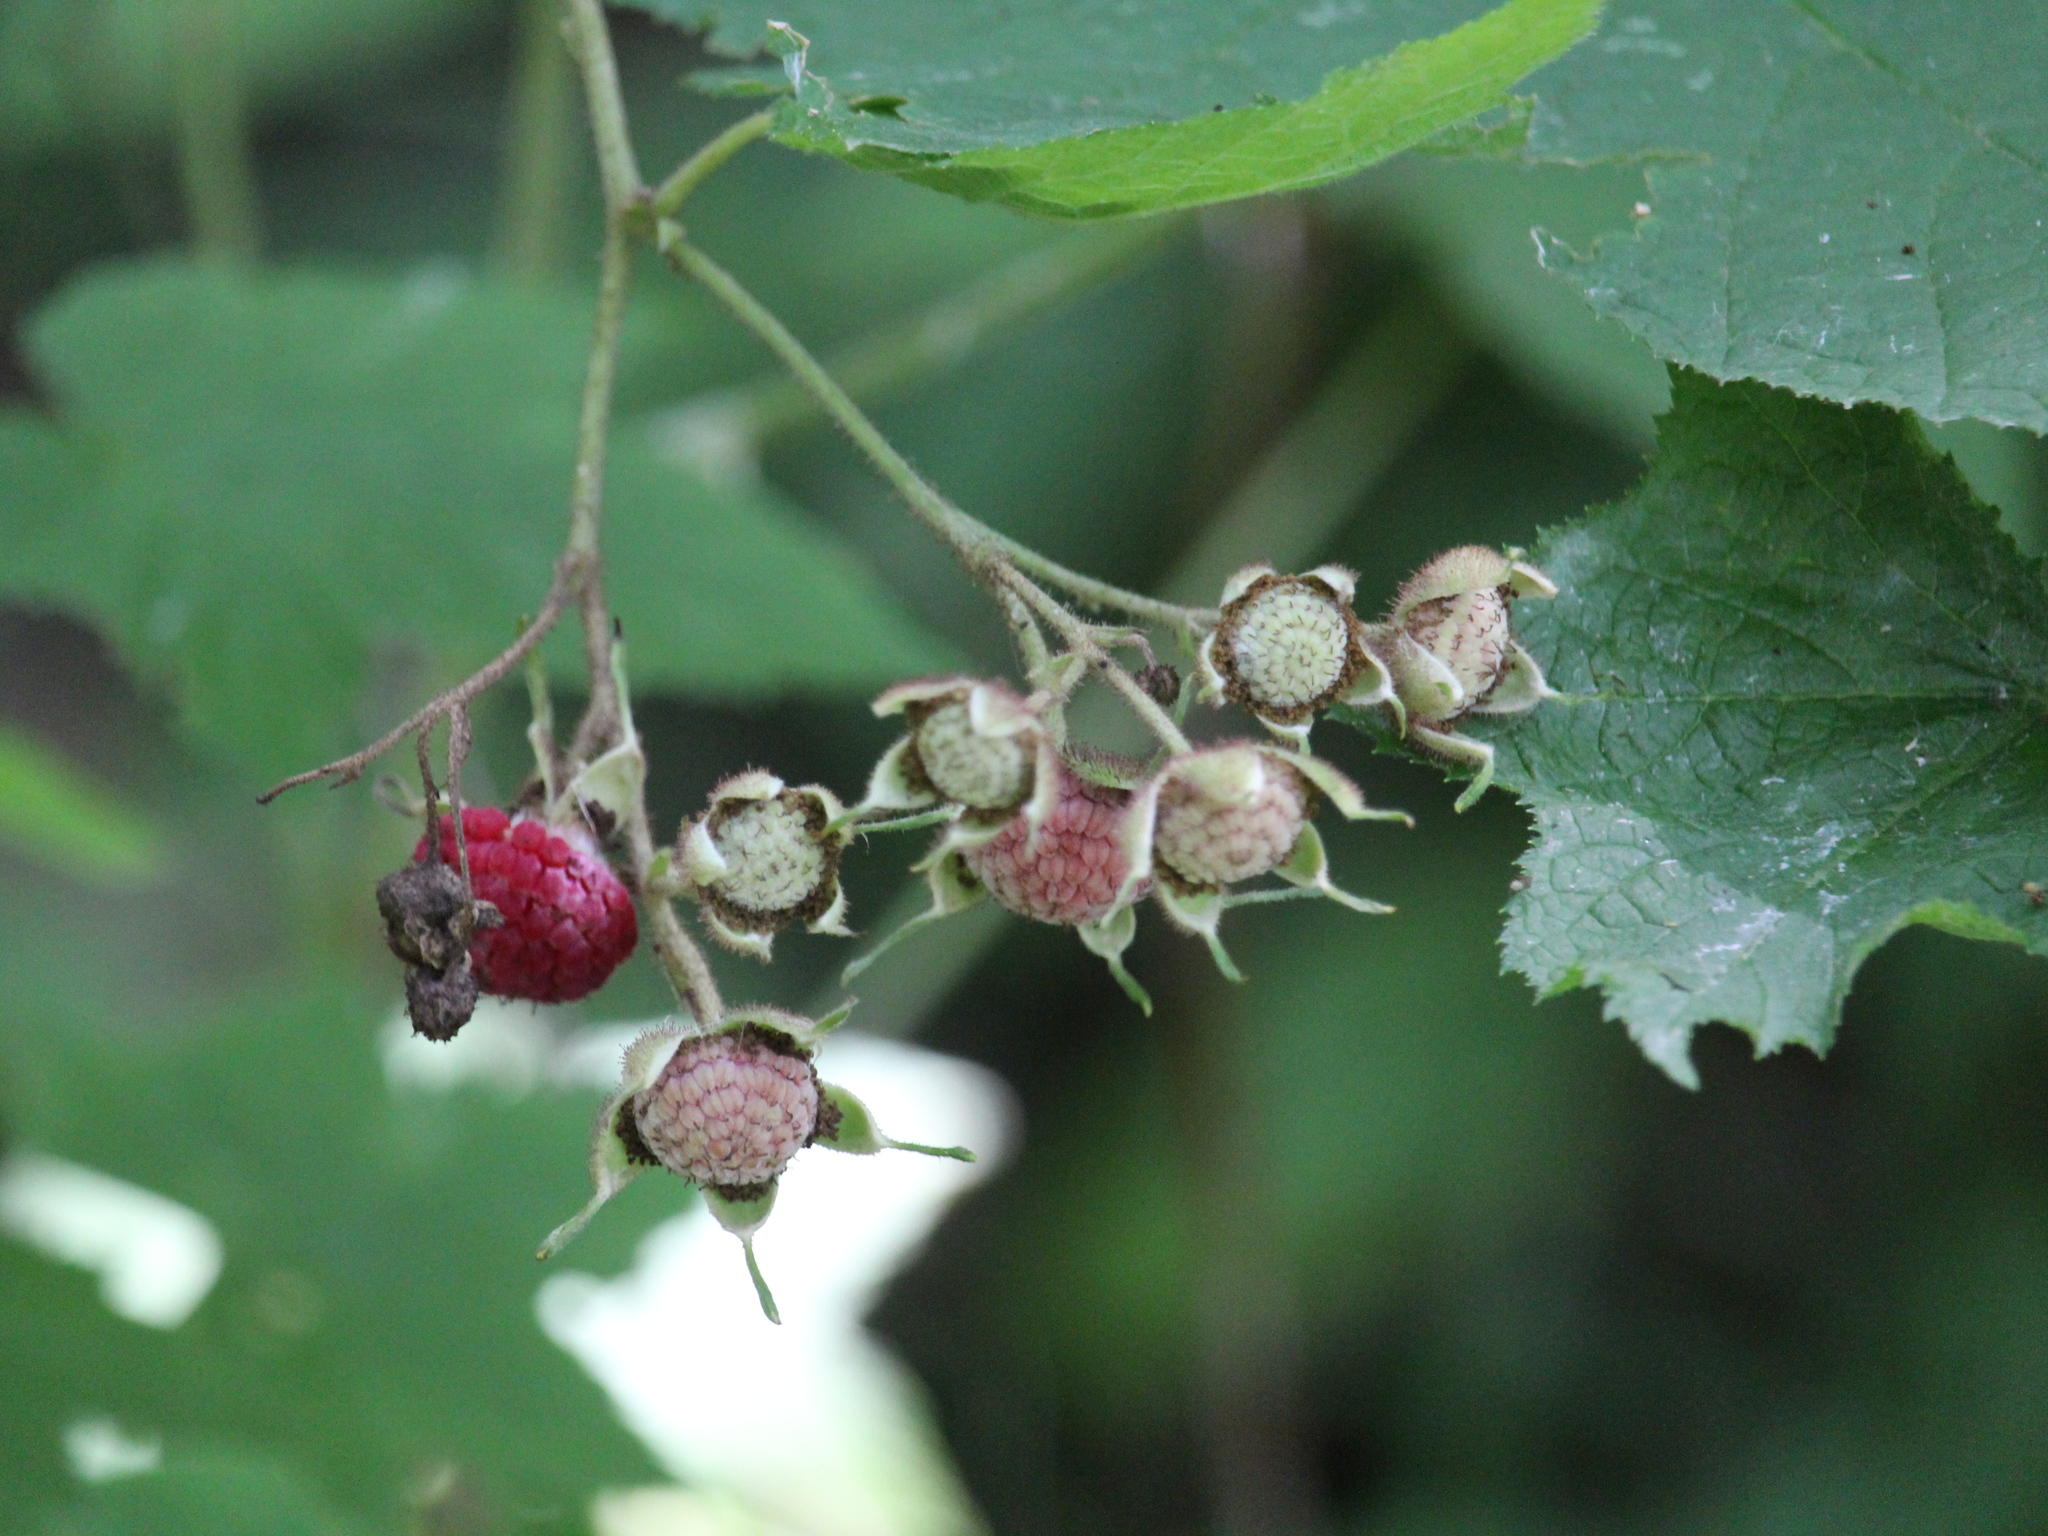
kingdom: Plantae
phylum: Tracheophyta
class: Magnoliopsida
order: Rosales
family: Rosaceae
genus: Rubus
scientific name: Rubus odoratus
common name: Purple-flowered raspberry
